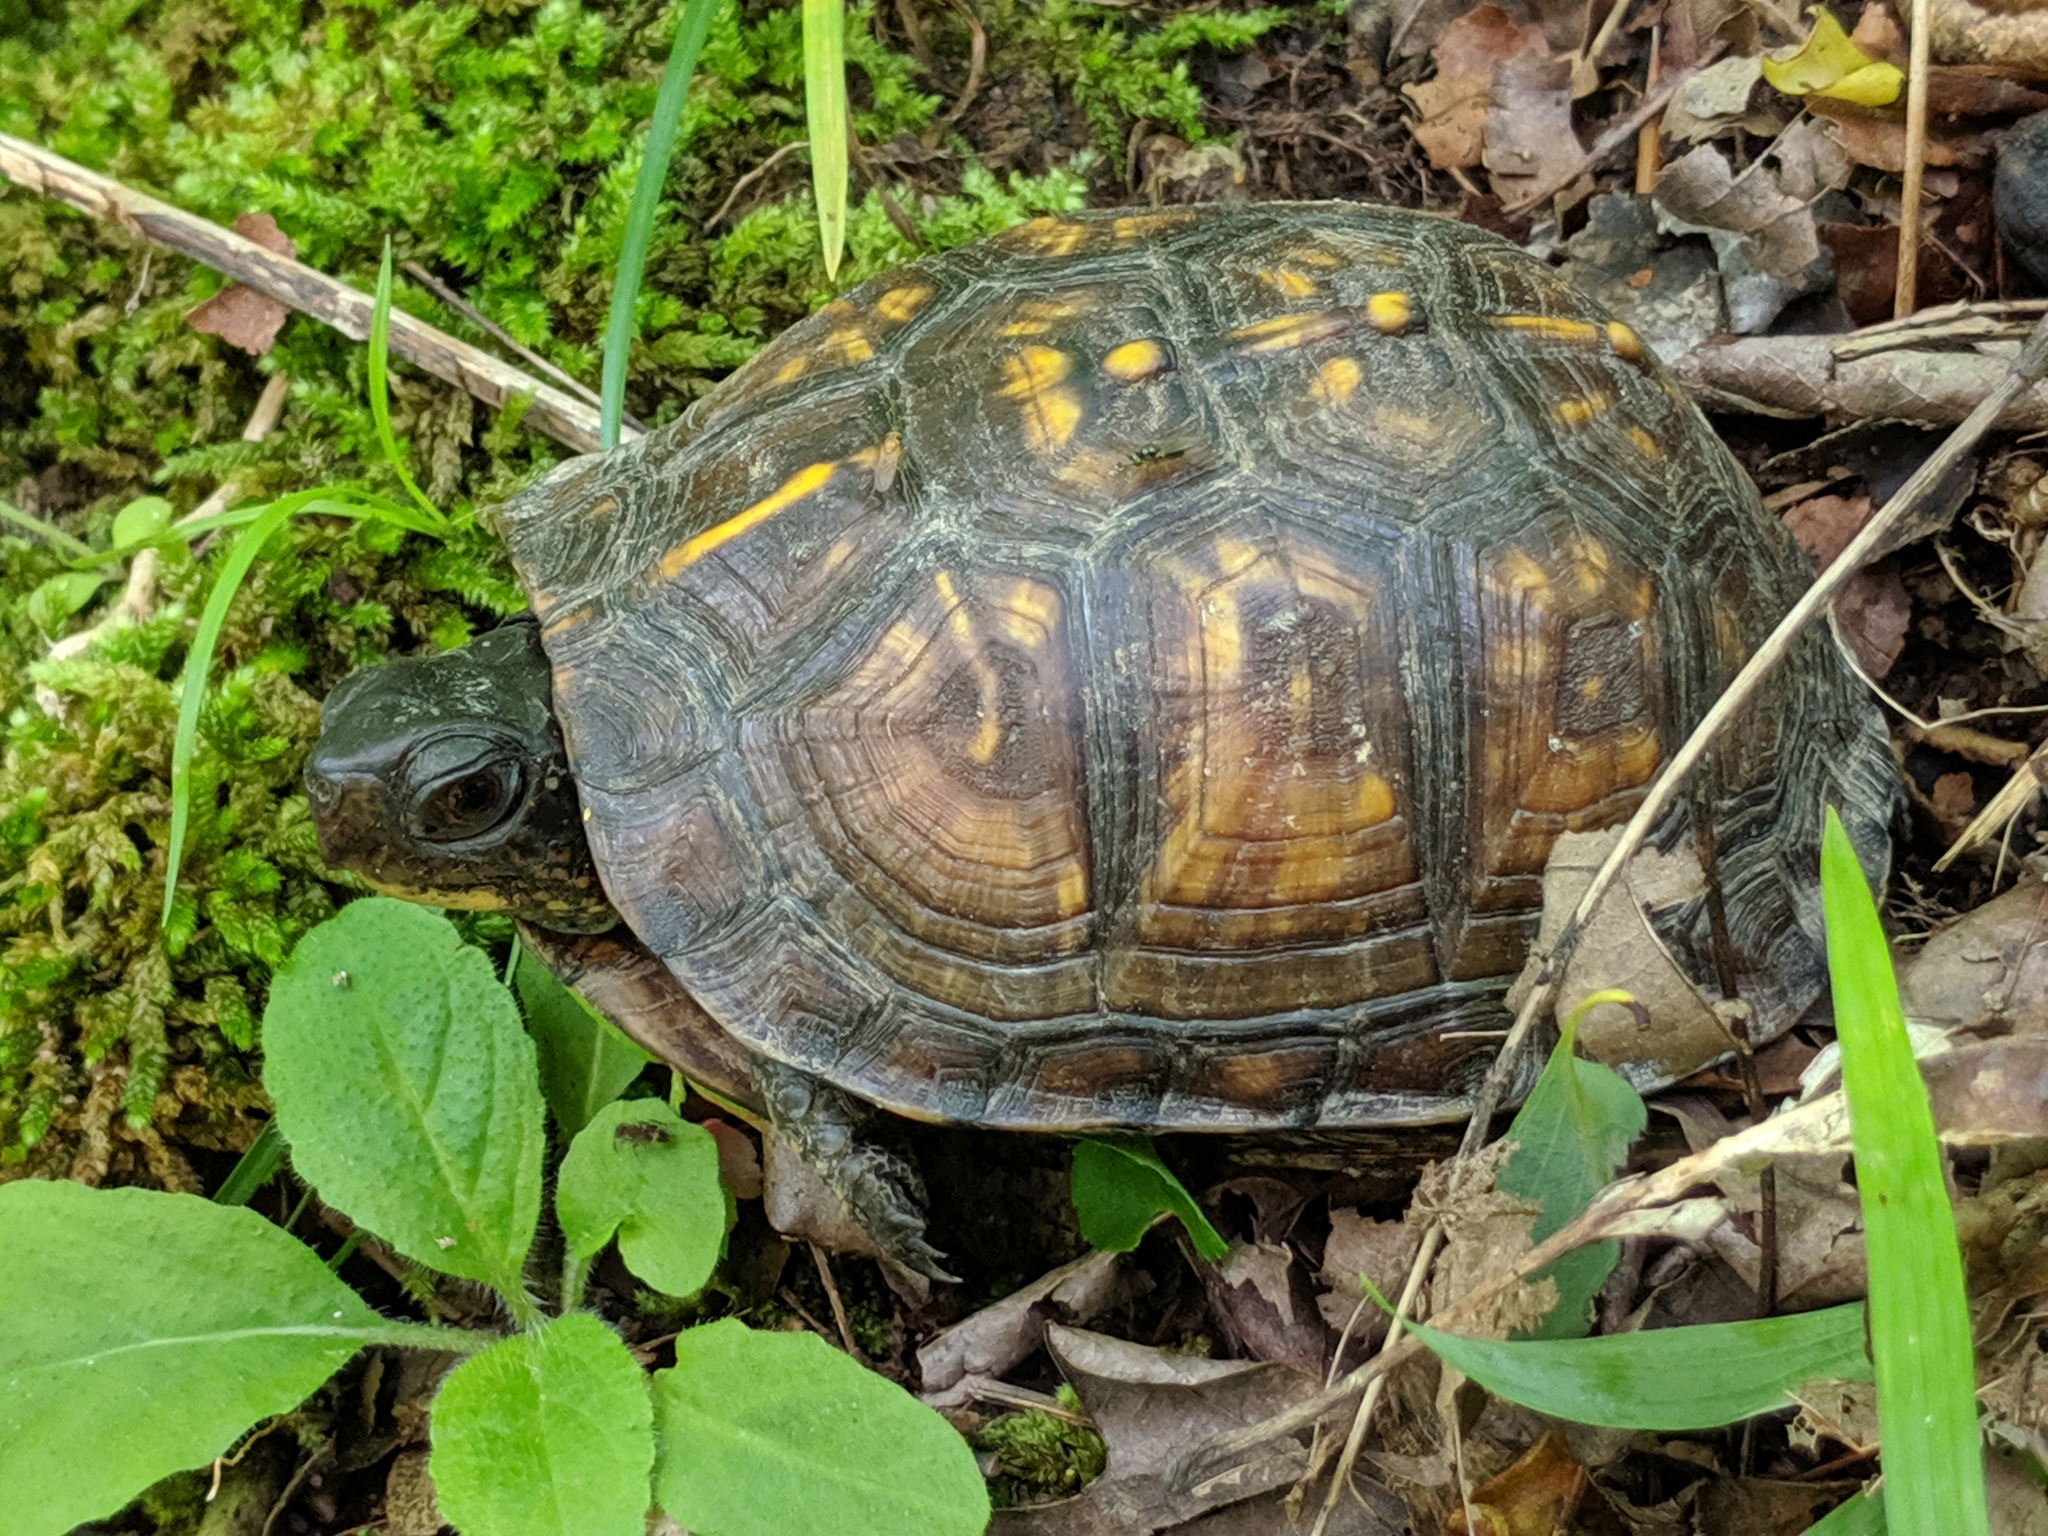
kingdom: Animalia
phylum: Chordata
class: Testudines
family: Emydidae
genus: Terrapene
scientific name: Terrapene carolina
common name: Common box turtle
